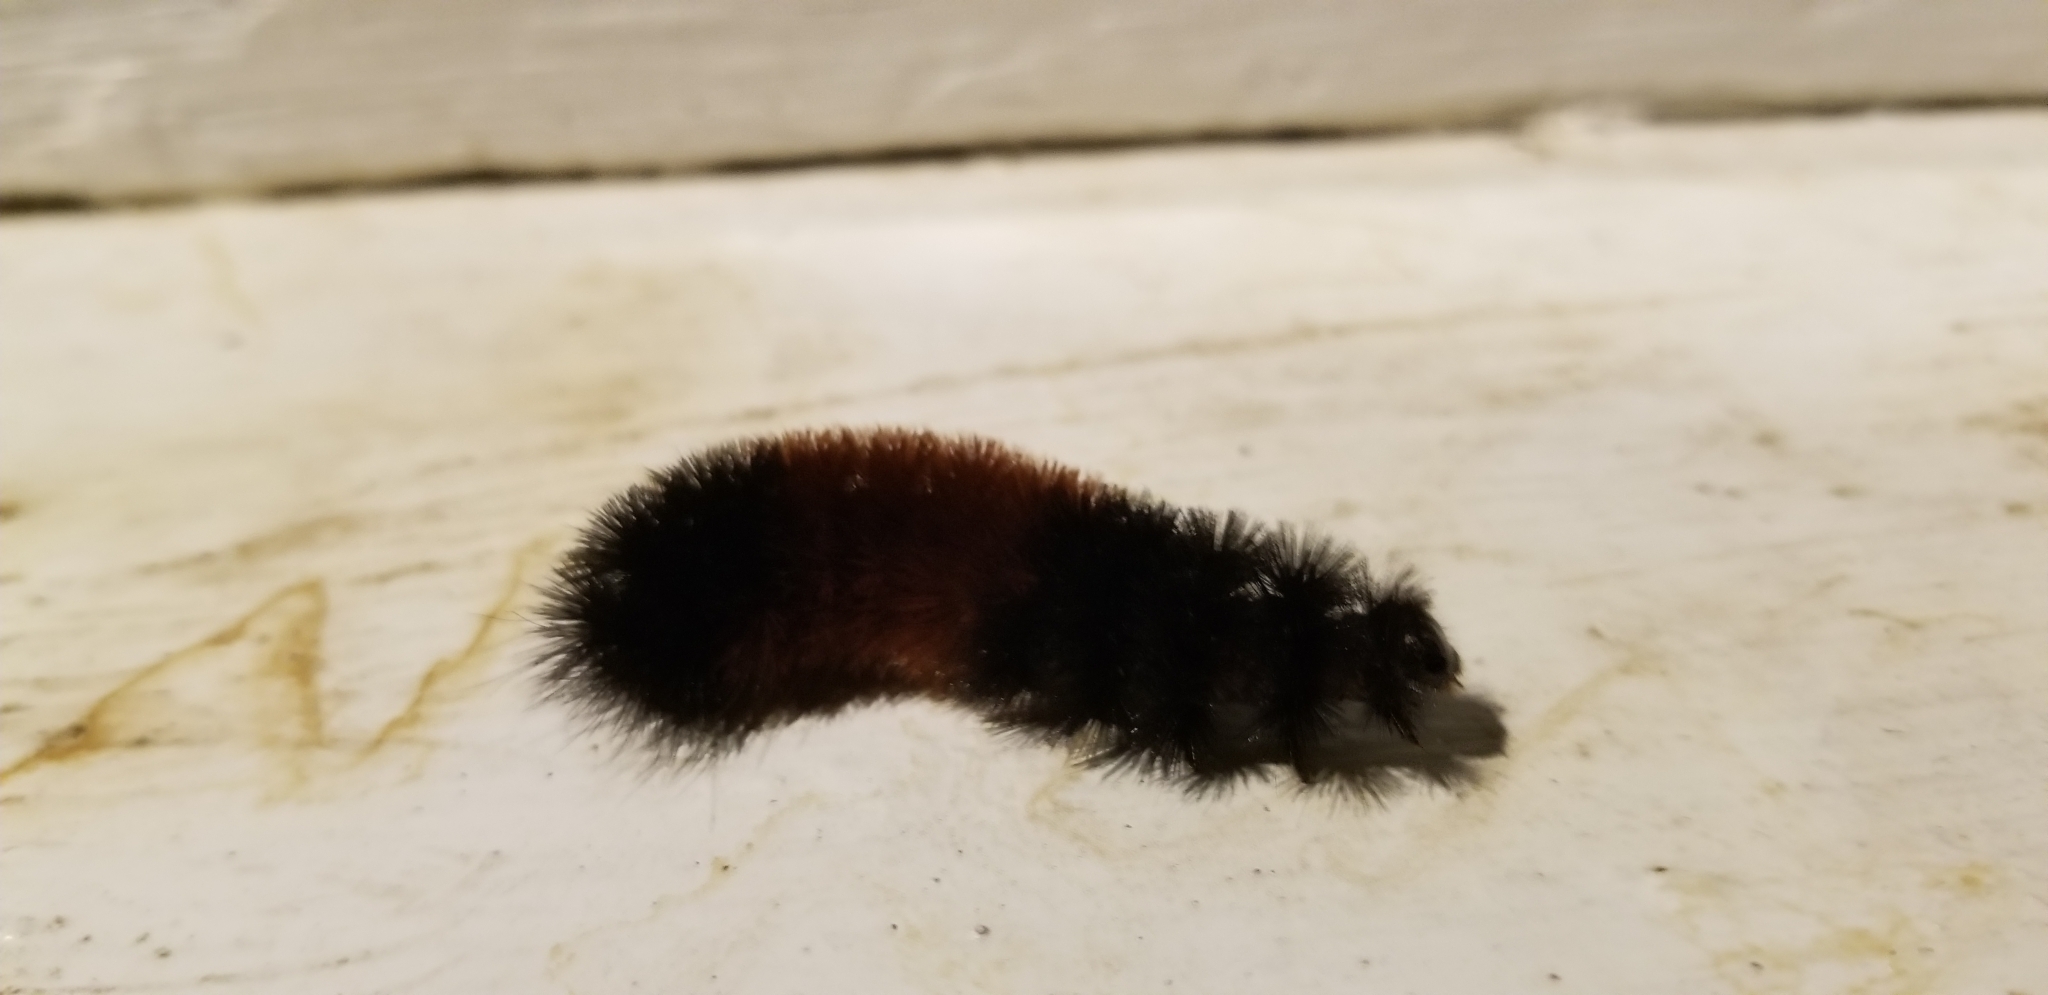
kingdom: Animalia
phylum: Arthropoda
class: Insecta
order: Lepidoptera
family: Erebidae
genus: Pyrrharctia
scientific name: Pyrrharctia isabella
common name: Isabella tiger moth
